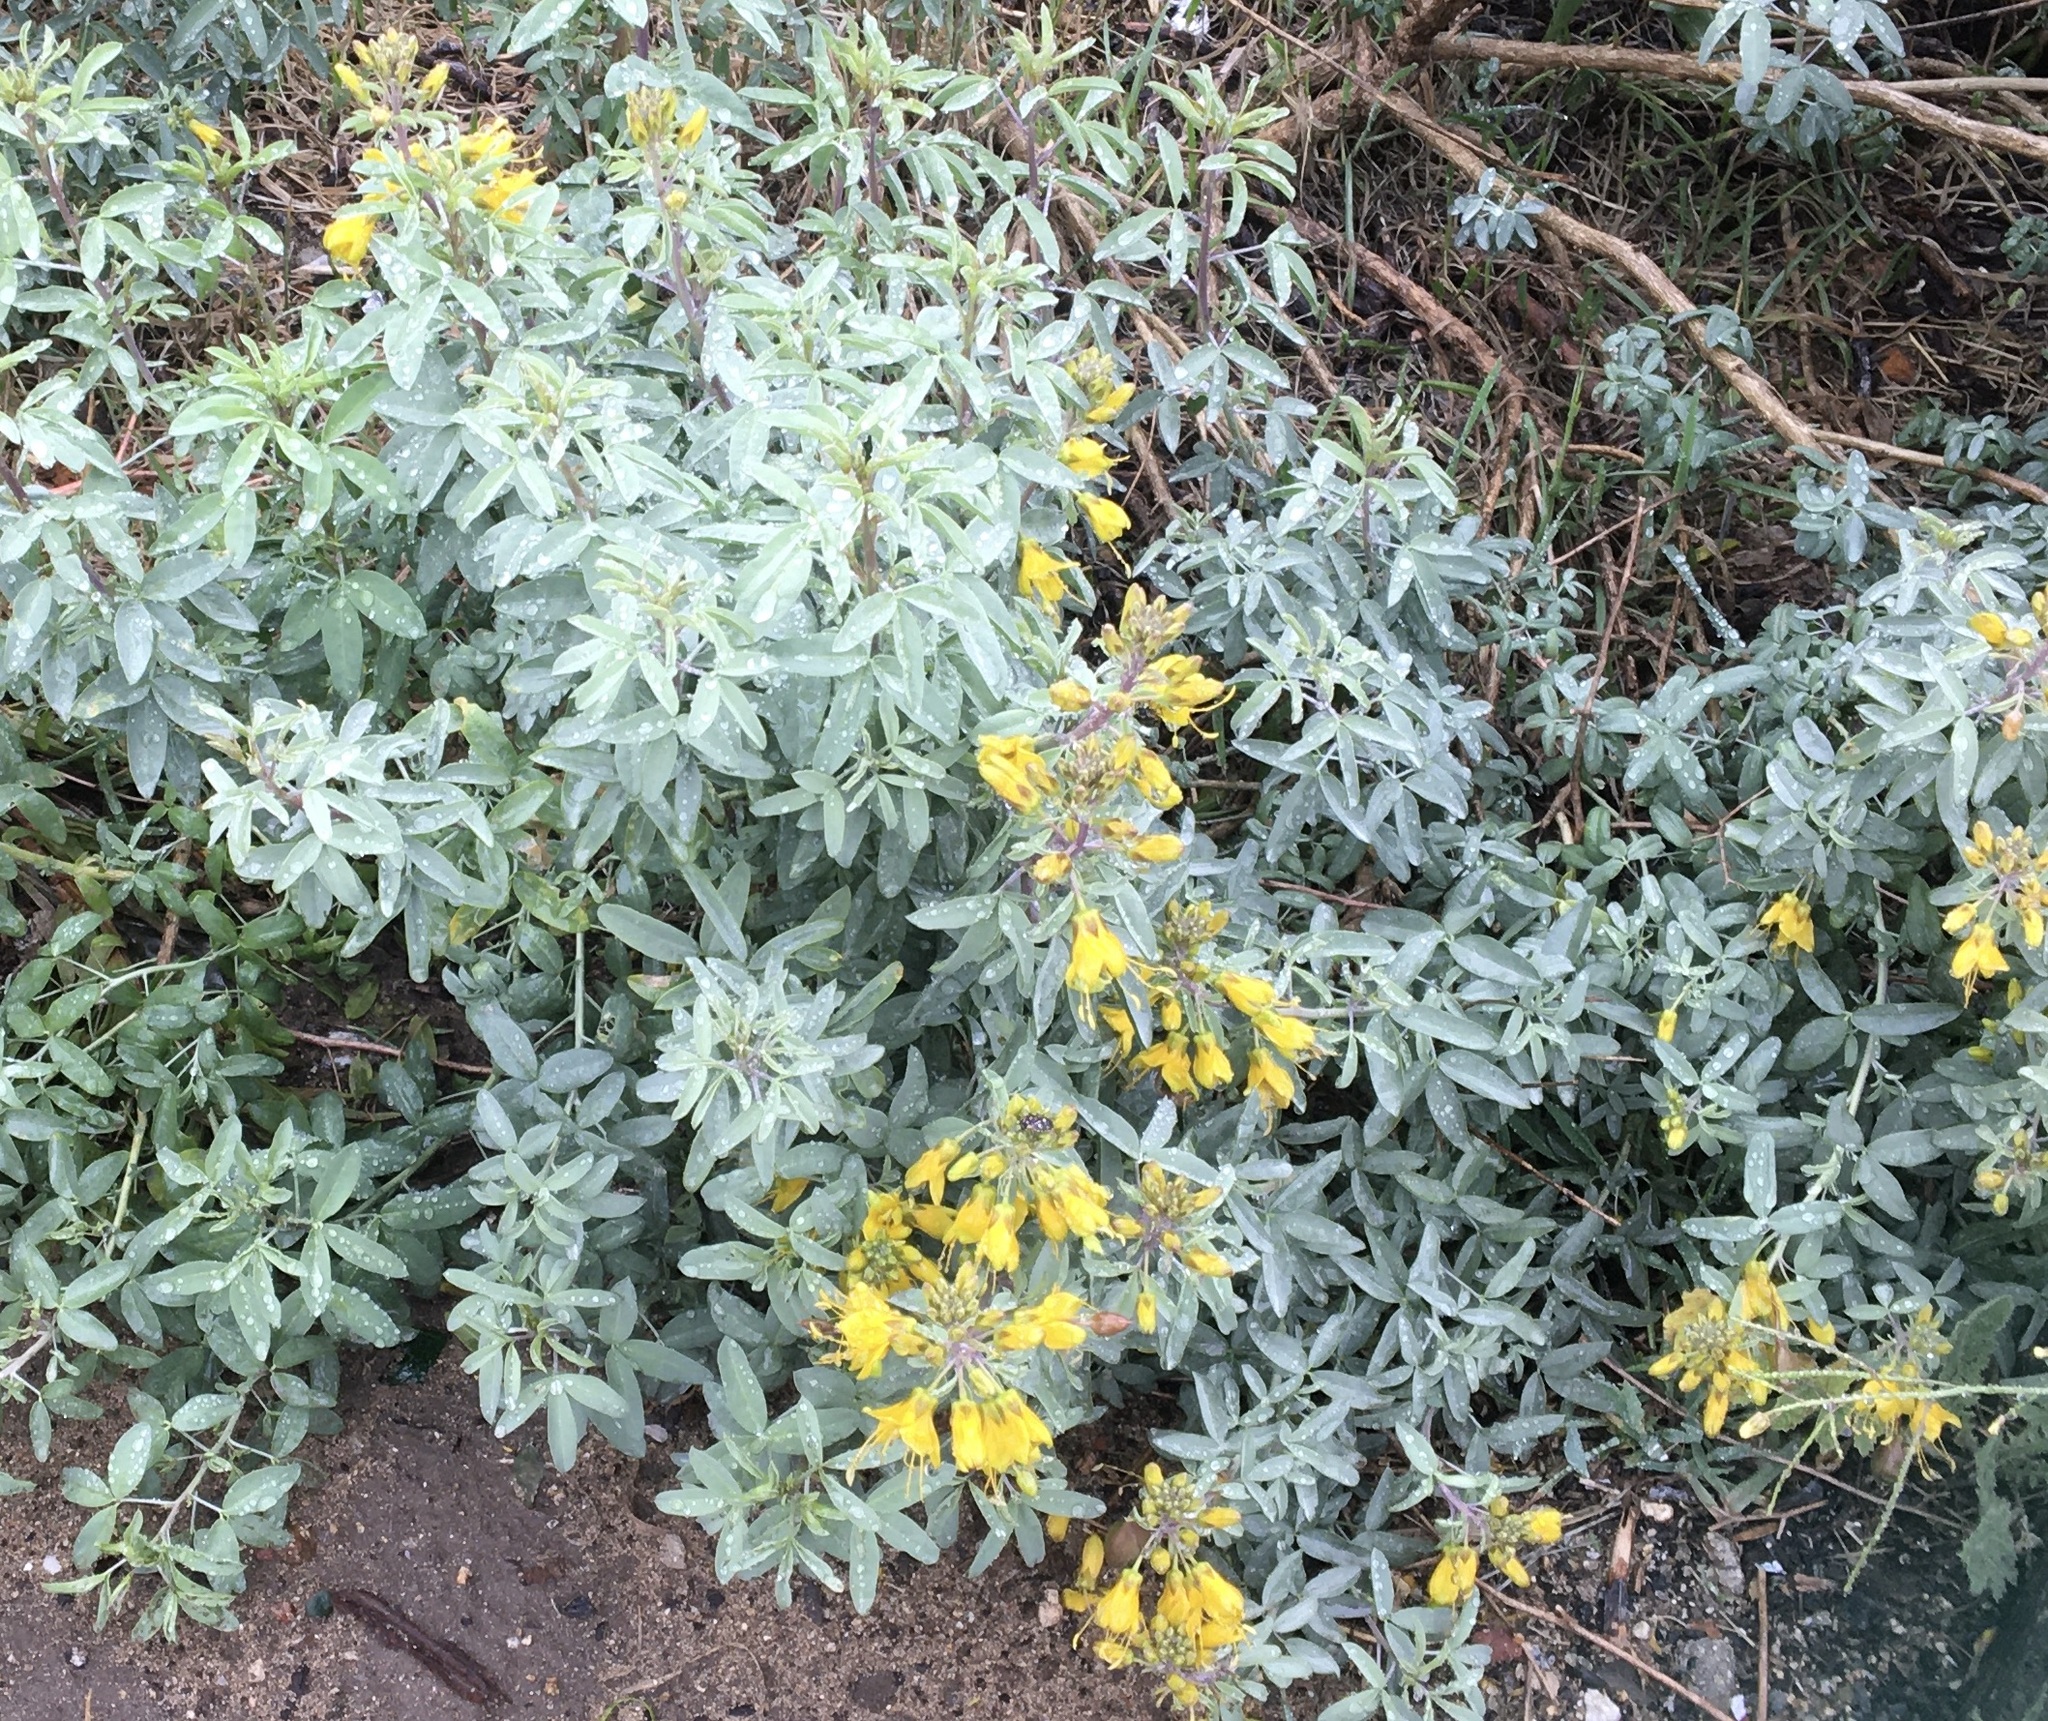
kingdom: Plantae
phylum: Tracheophyta
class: Magnoliopsida
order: Brassicales
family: Cleomaceae
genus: Cleomella
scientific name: Cleomella arborea
